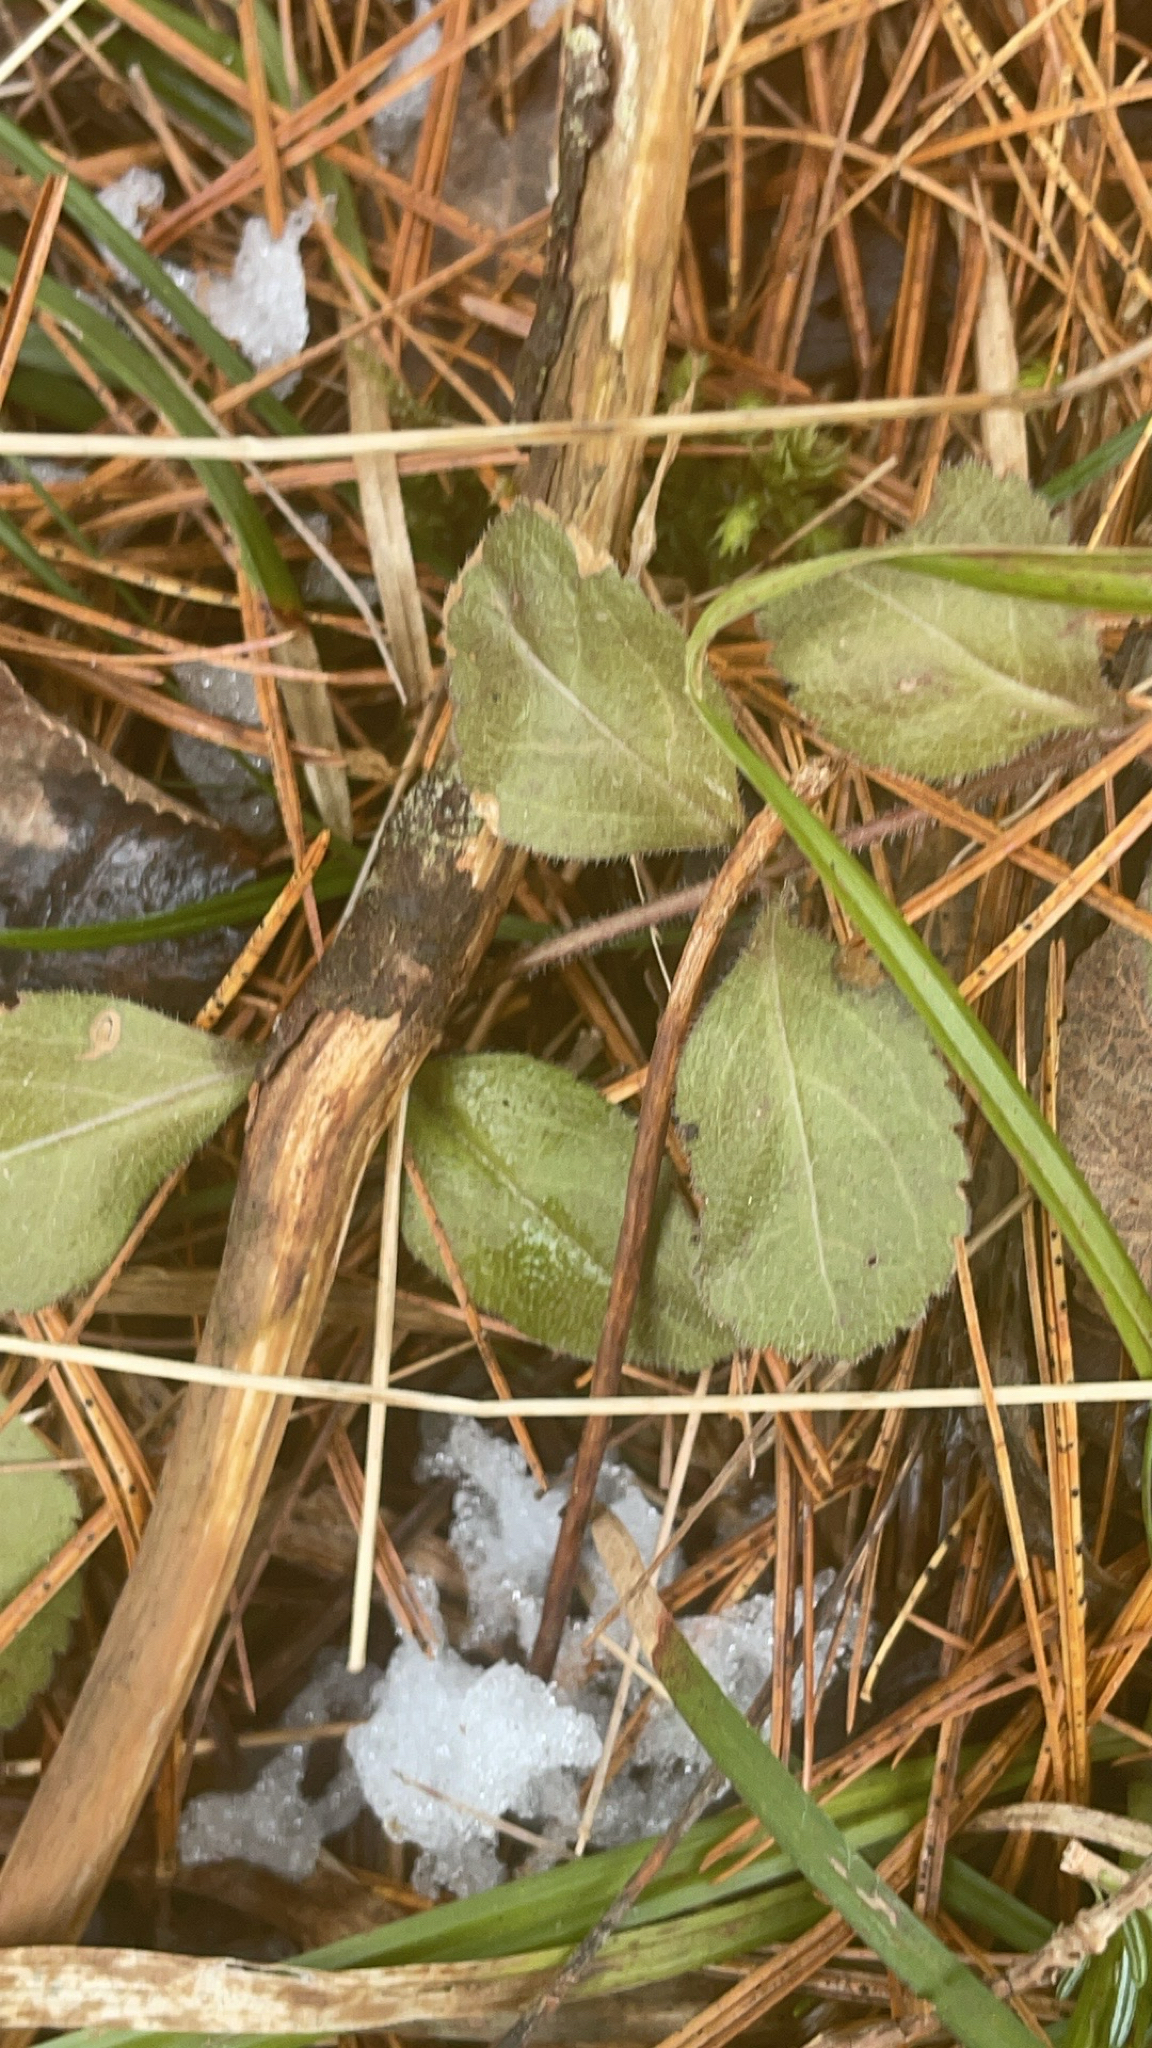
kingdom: Plantae
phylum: Tracheophyta
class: Magnoliopsida
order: Lamiales
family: Plantaginaceae
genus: Veronica
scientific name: Veronica officinalis
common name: Common speedwell
